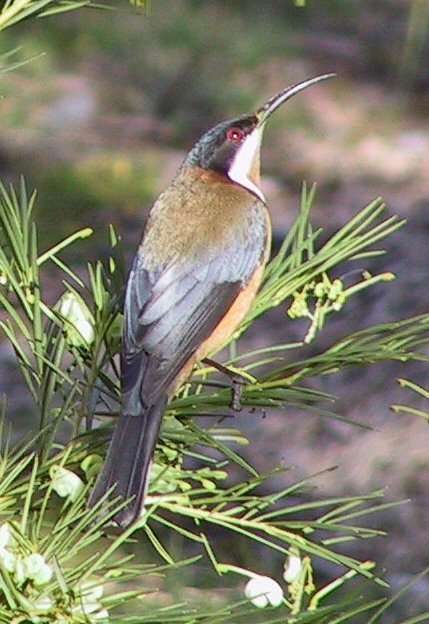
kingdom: Animalia
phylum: Chordata
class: Aves
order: Passeriformes
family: Meliphagidae
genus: Acanthorhynchus
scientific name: Acanthorhynchus tenuirostris
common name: Eastern spinebill
